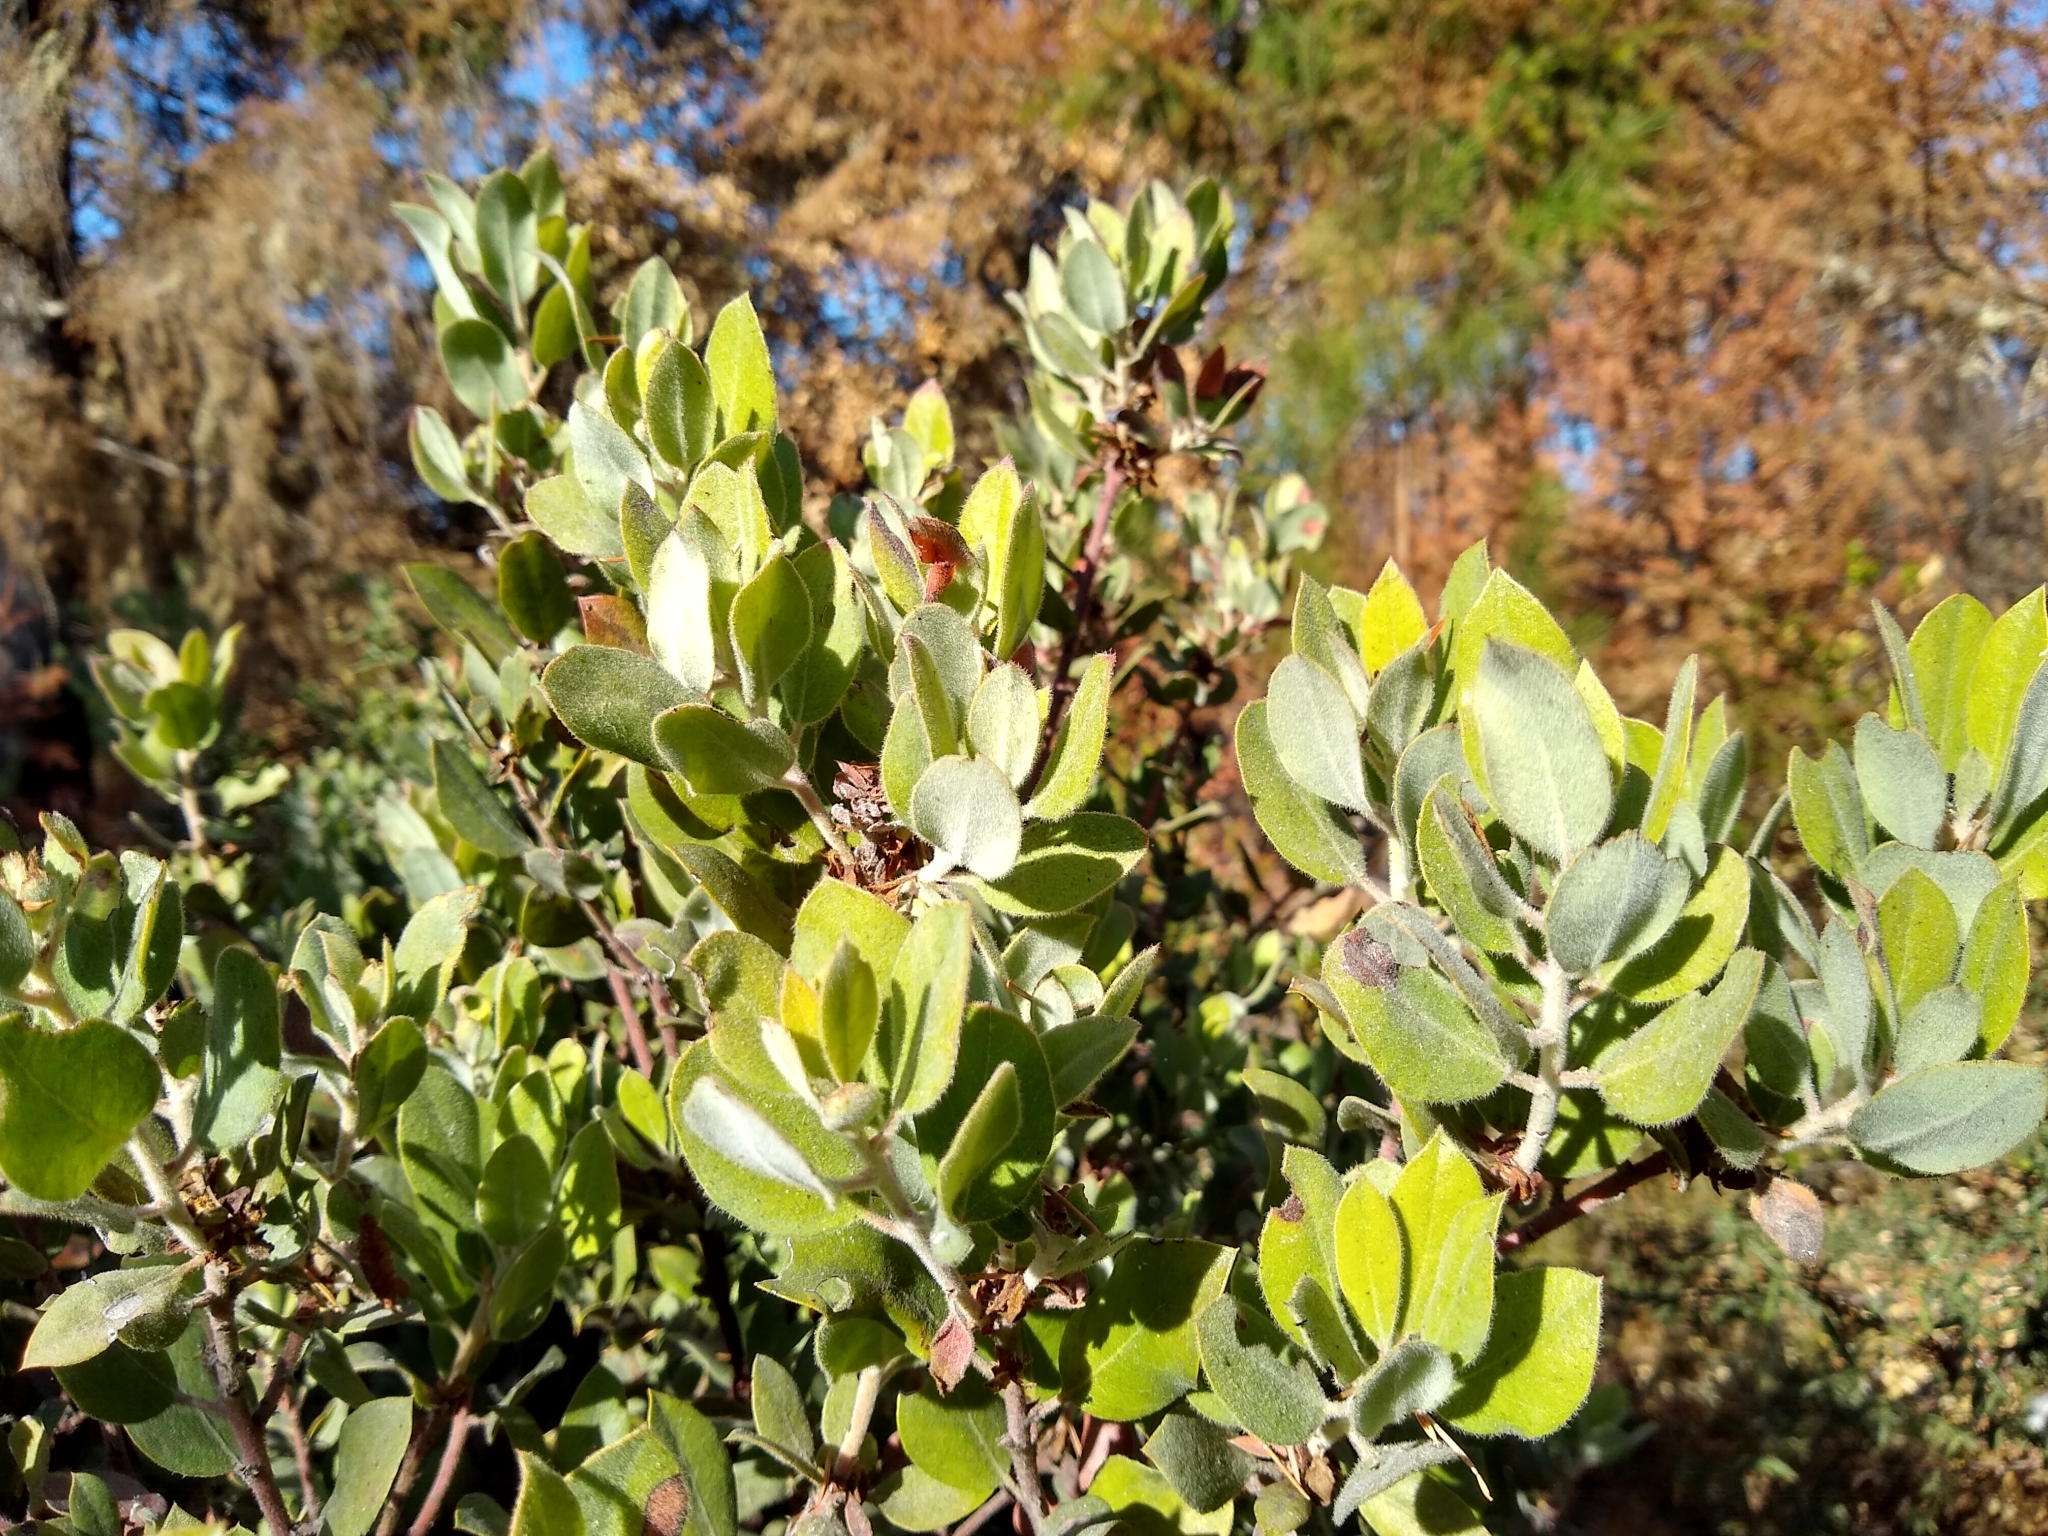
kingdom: Plantae
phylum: Tracheophyta
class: Magnoliopsida
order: Ericales
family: Ericaceae
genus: Arctostaphylos
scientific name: Arctostaphylos silvicola
